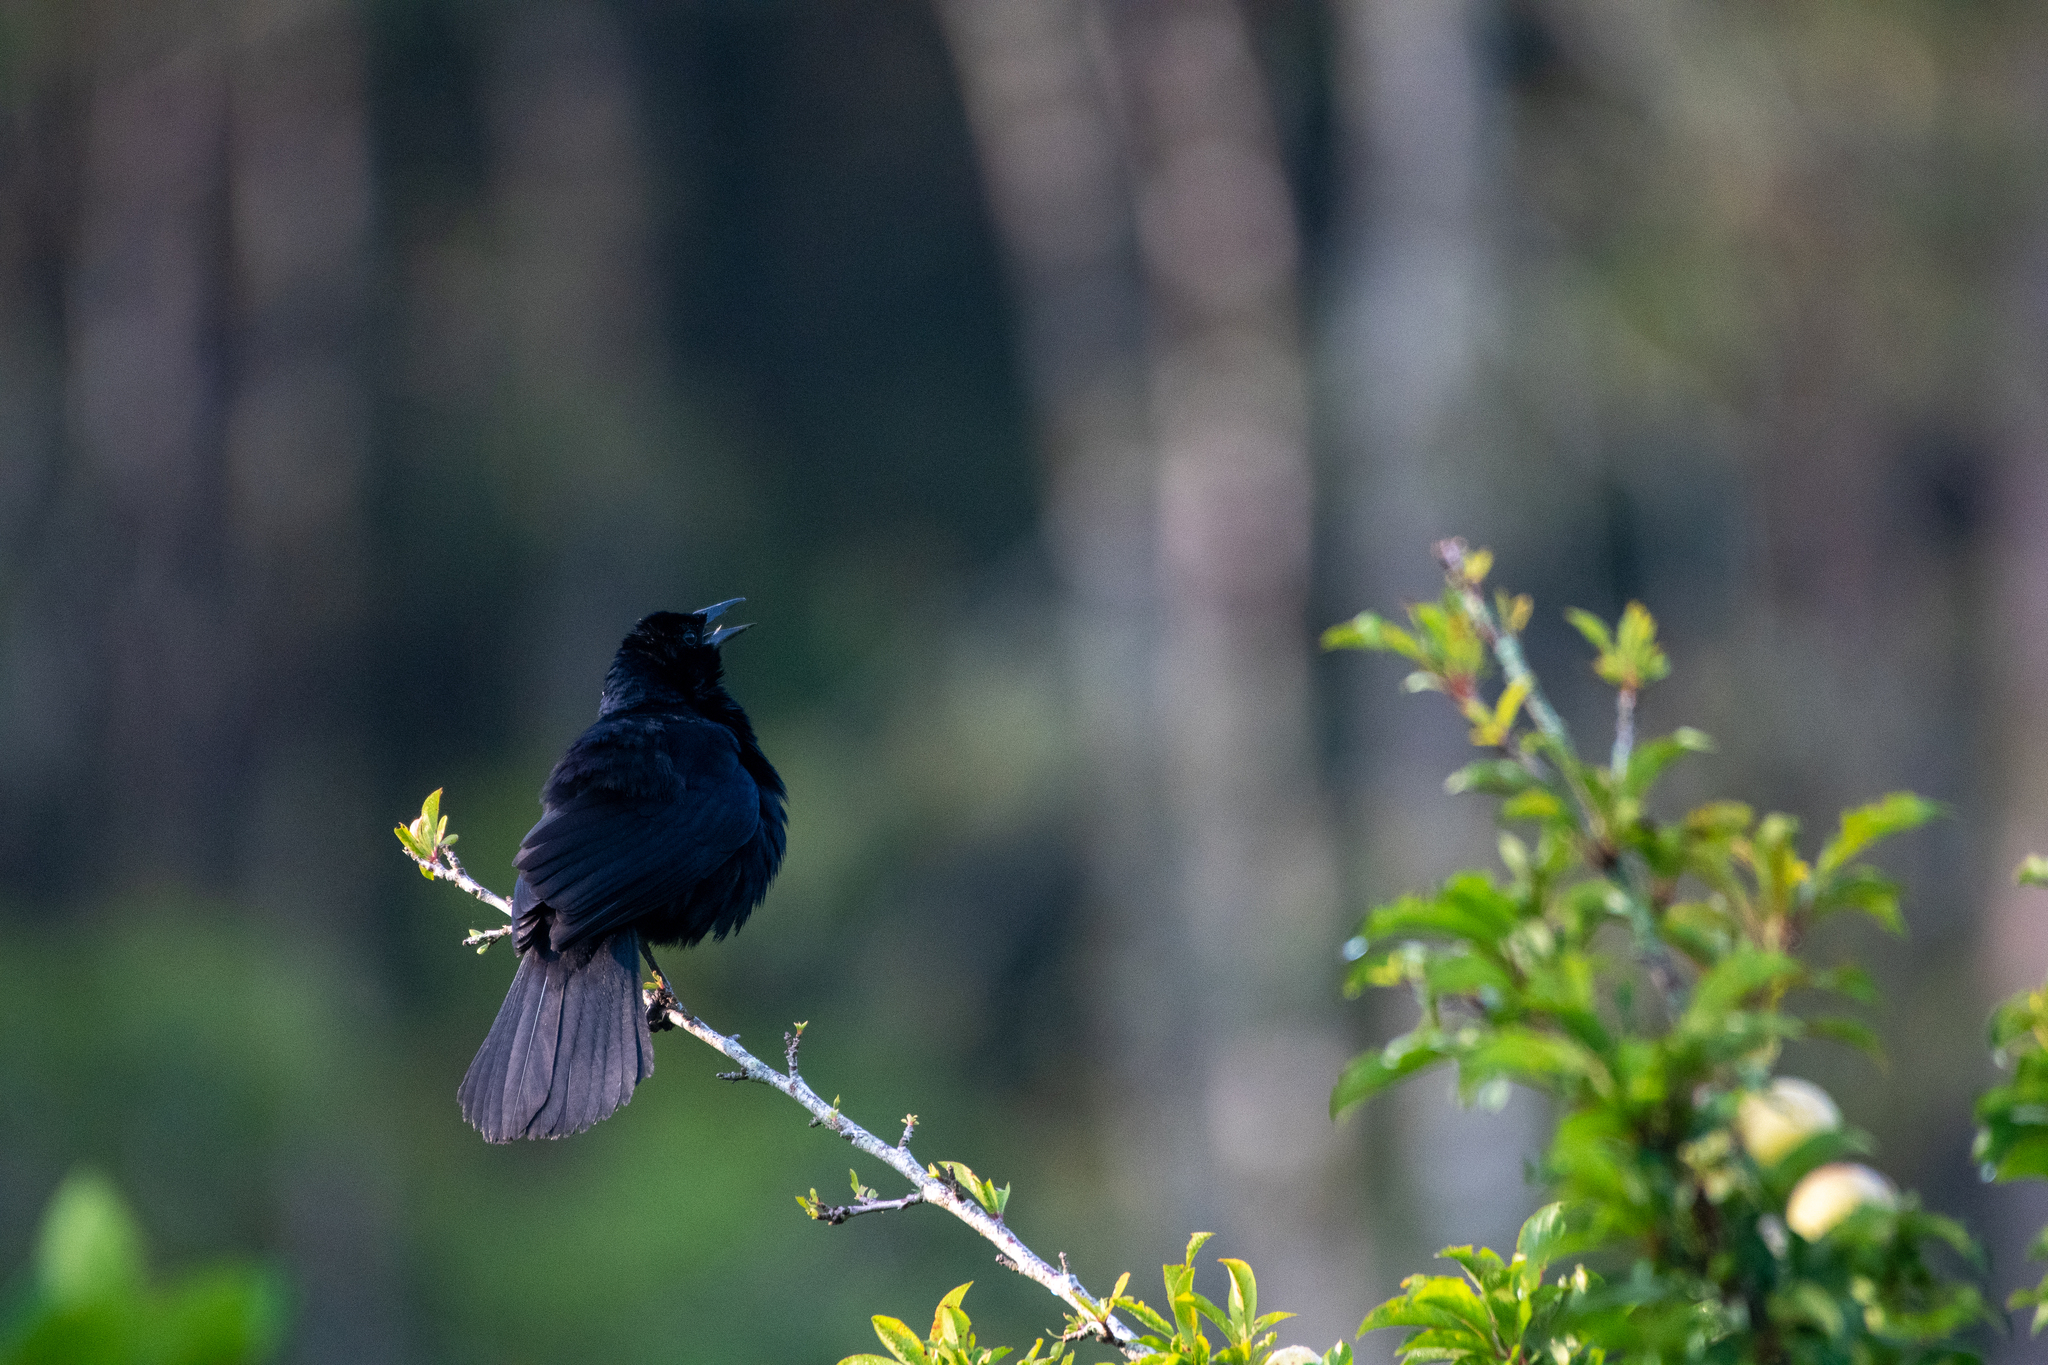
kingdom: Animalia
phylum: Chordata
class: Aves
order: Passeriformes
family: Icteridae
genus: Dives
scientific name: Dives dives
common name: Melodious blackbird
